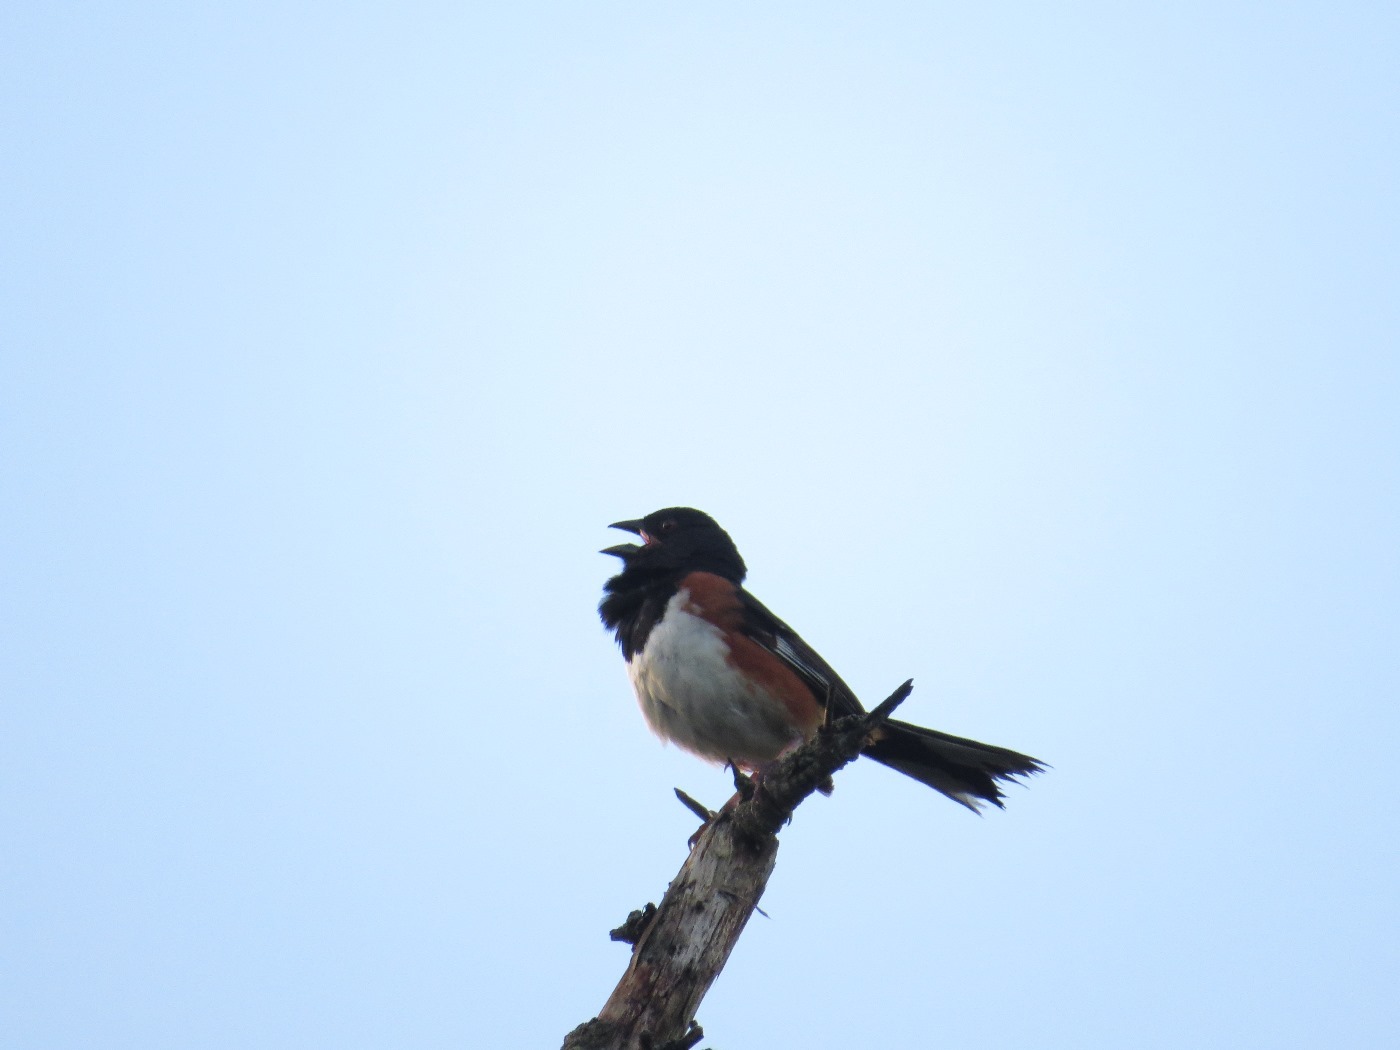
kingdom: Animalia
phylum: Chordata
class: Aves
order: Passeriformes
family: Passerellidae
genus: Pipilo
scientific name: Pipilo erythrophthalmus
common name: Eastern towhee
